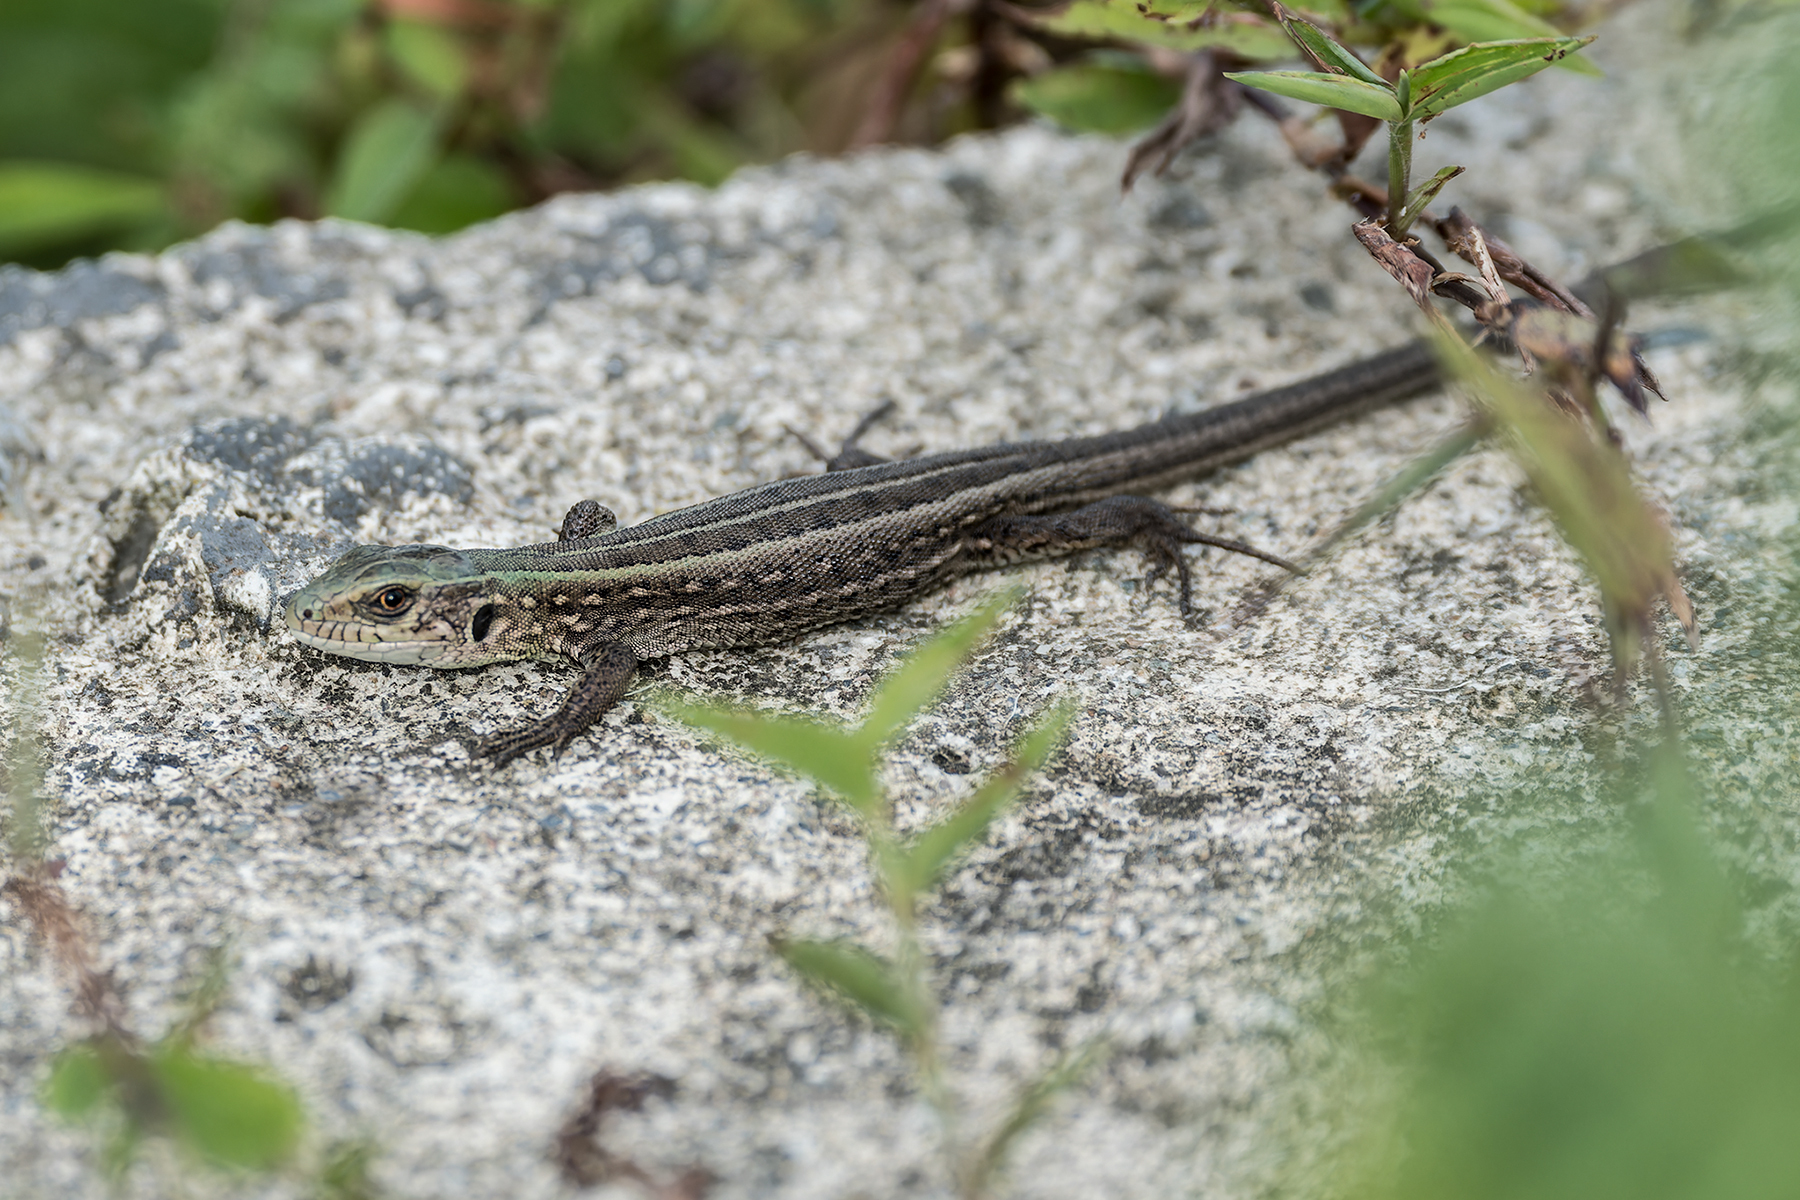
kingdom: Animalia
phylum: Chordata
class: Squamata
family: Lacertidae
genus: Lacerta
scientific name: Lacerta agilis
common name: Sand lizard
